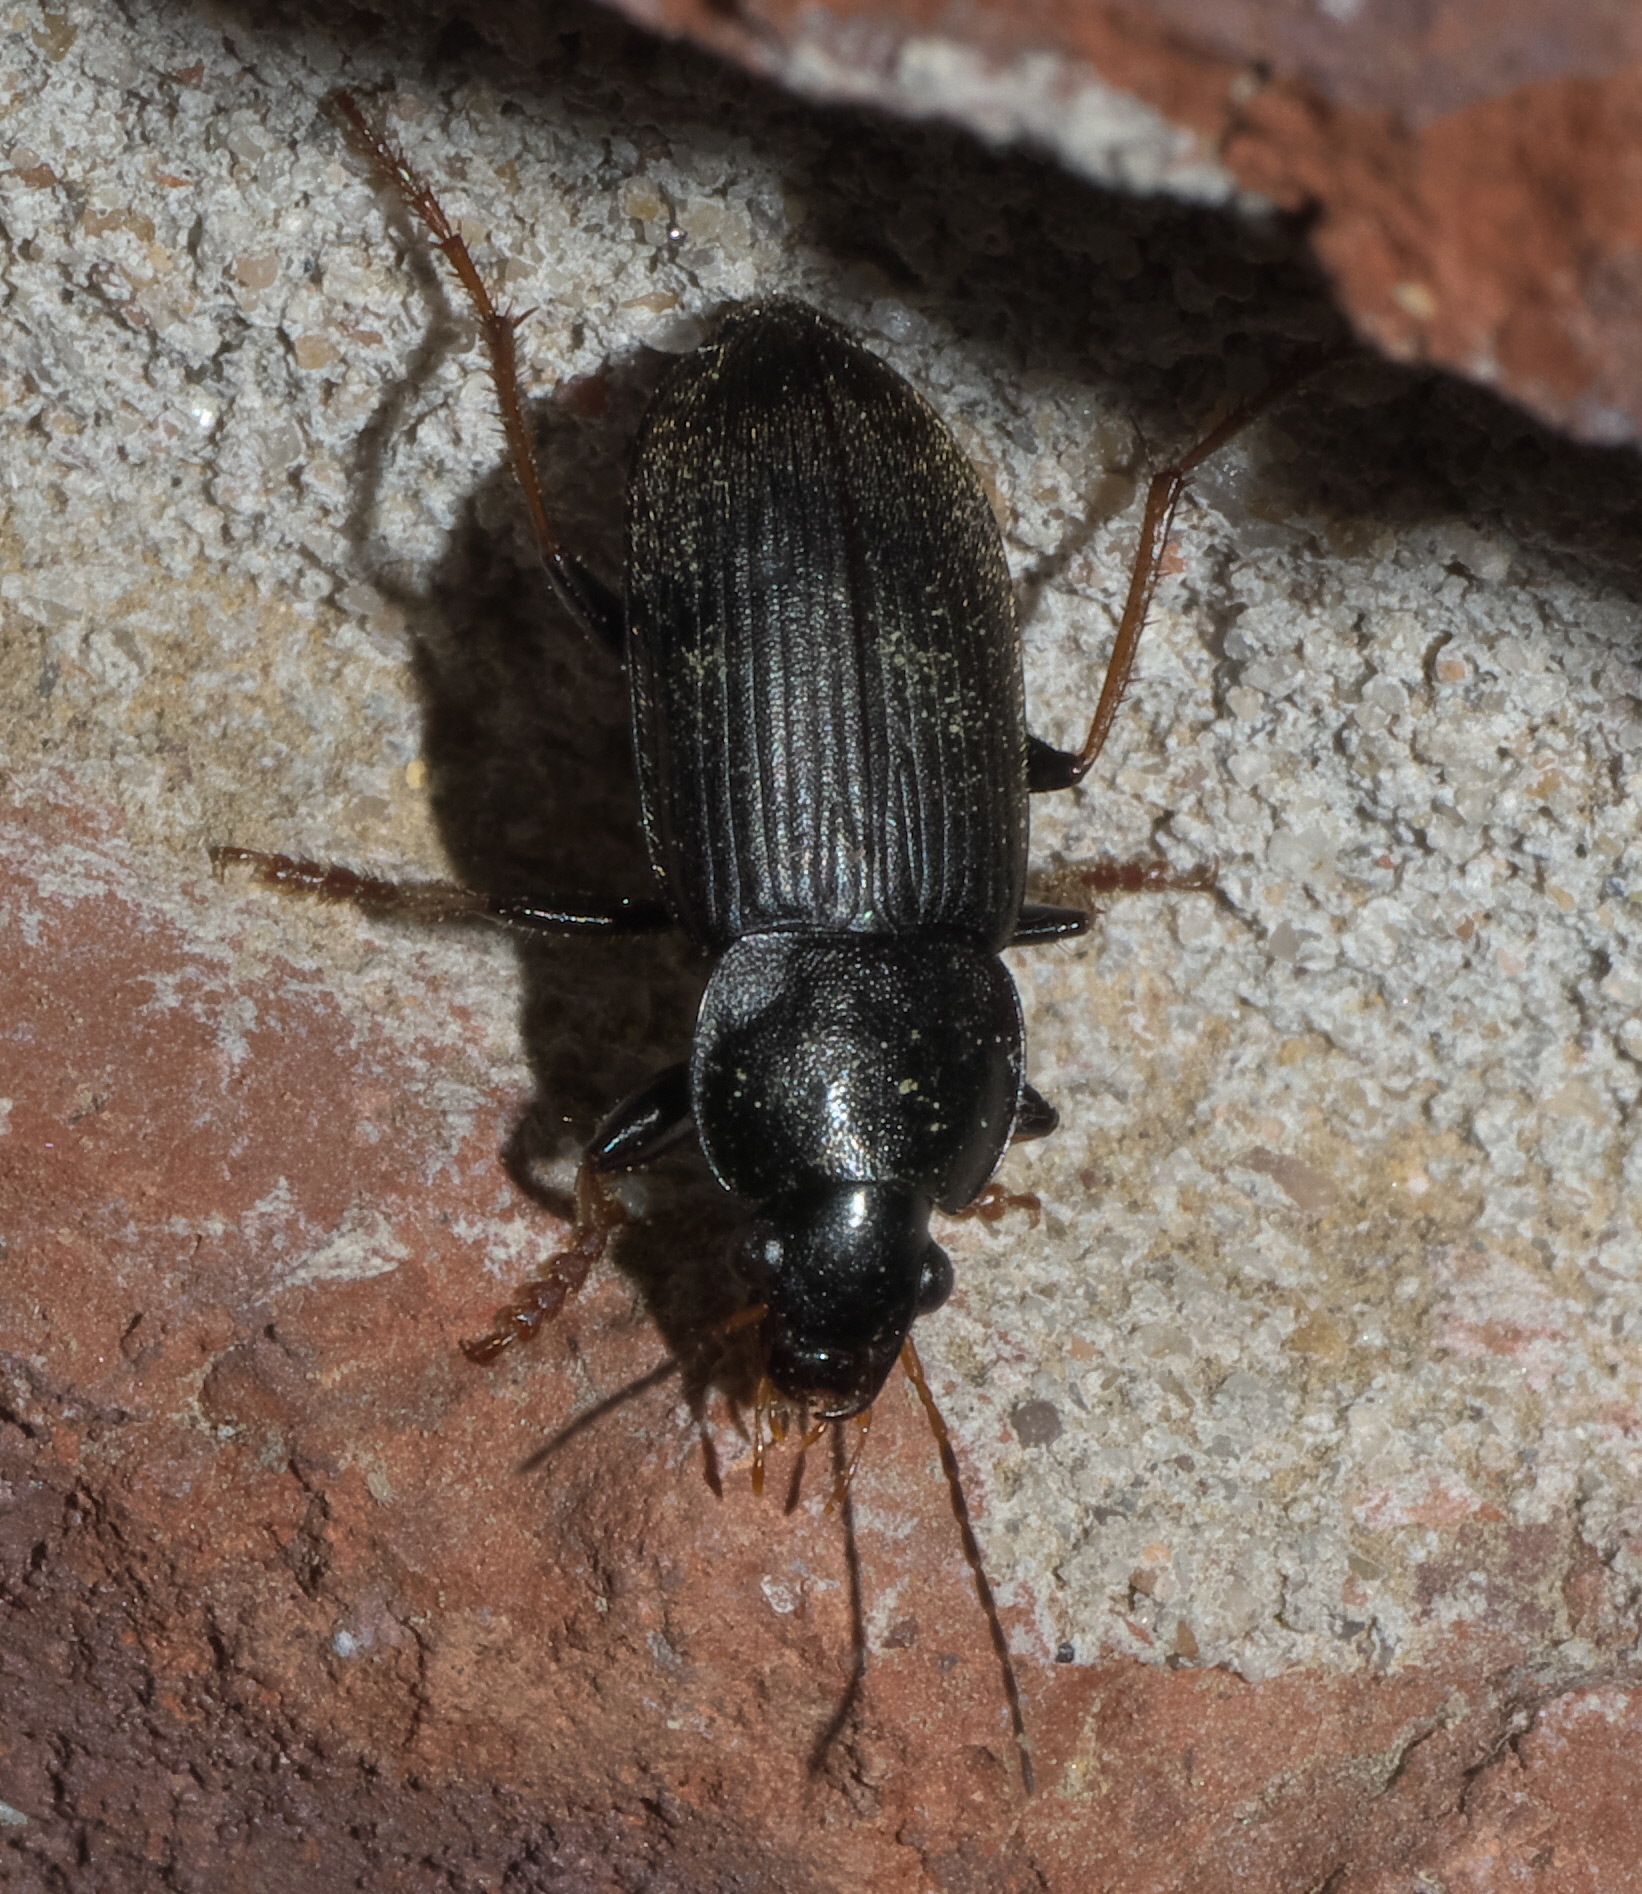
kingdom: Animalia
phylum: Arthropoda
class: Insecta
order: Coleoptera
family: Carabidae
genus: Amphasia
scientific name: Amphasia sericea
